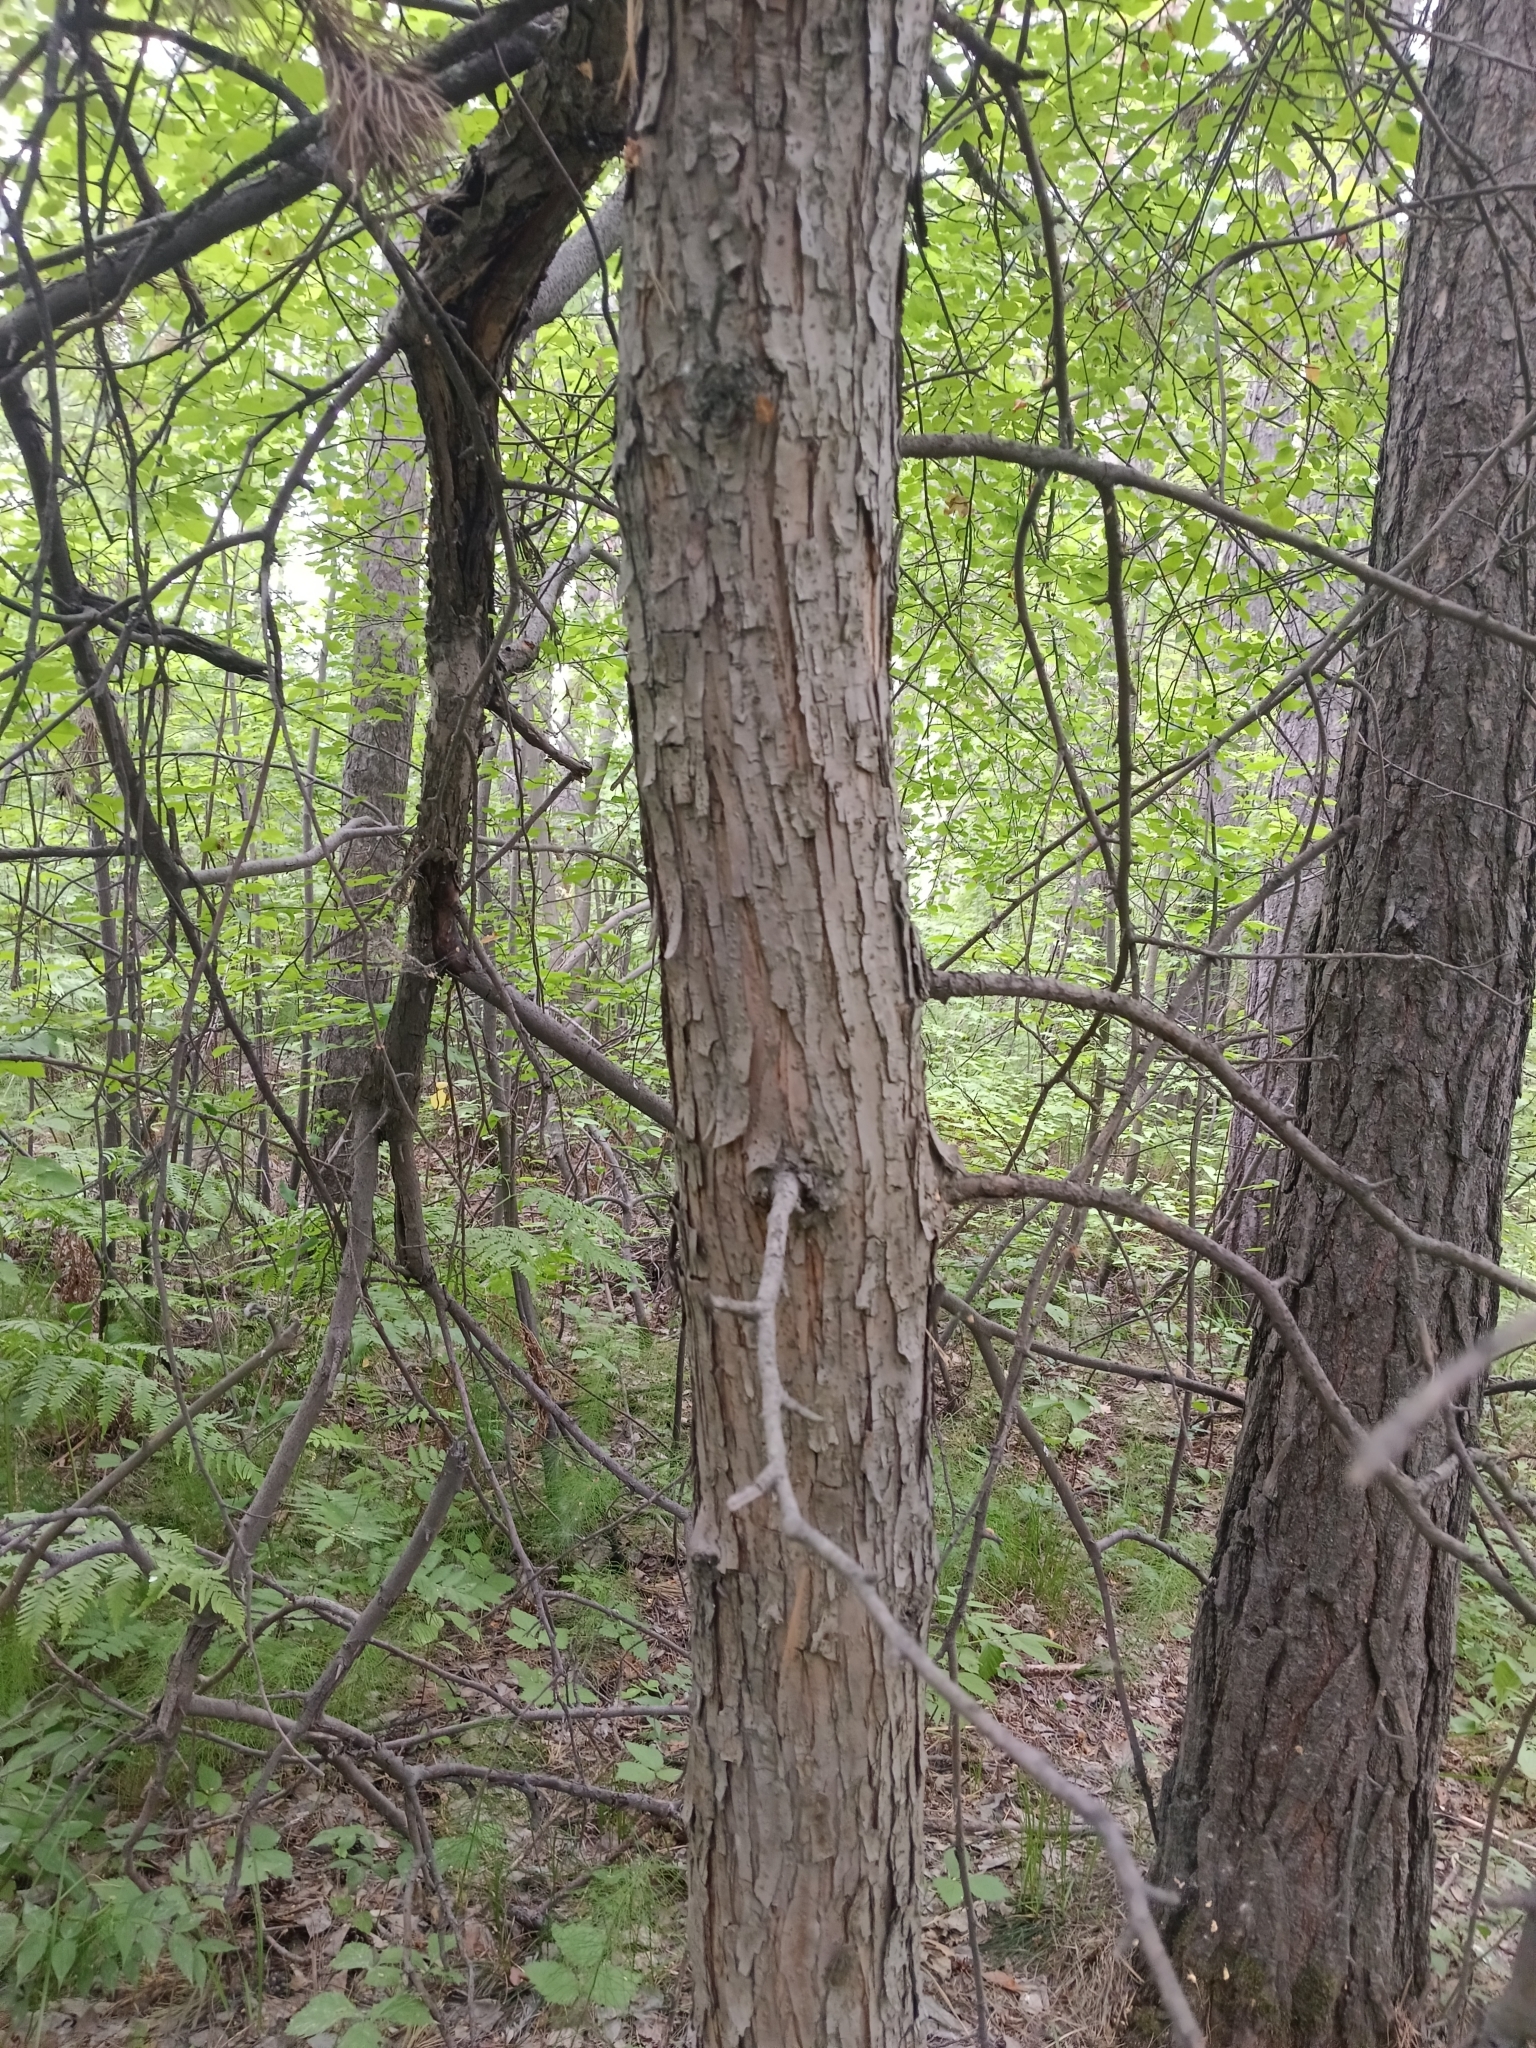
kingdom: Plantae
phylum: Tracheophyta
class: Magnoliopsida
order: Rosales
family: Rosaceae
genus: Malus
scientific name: Malus baccata
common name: Siberian crab
